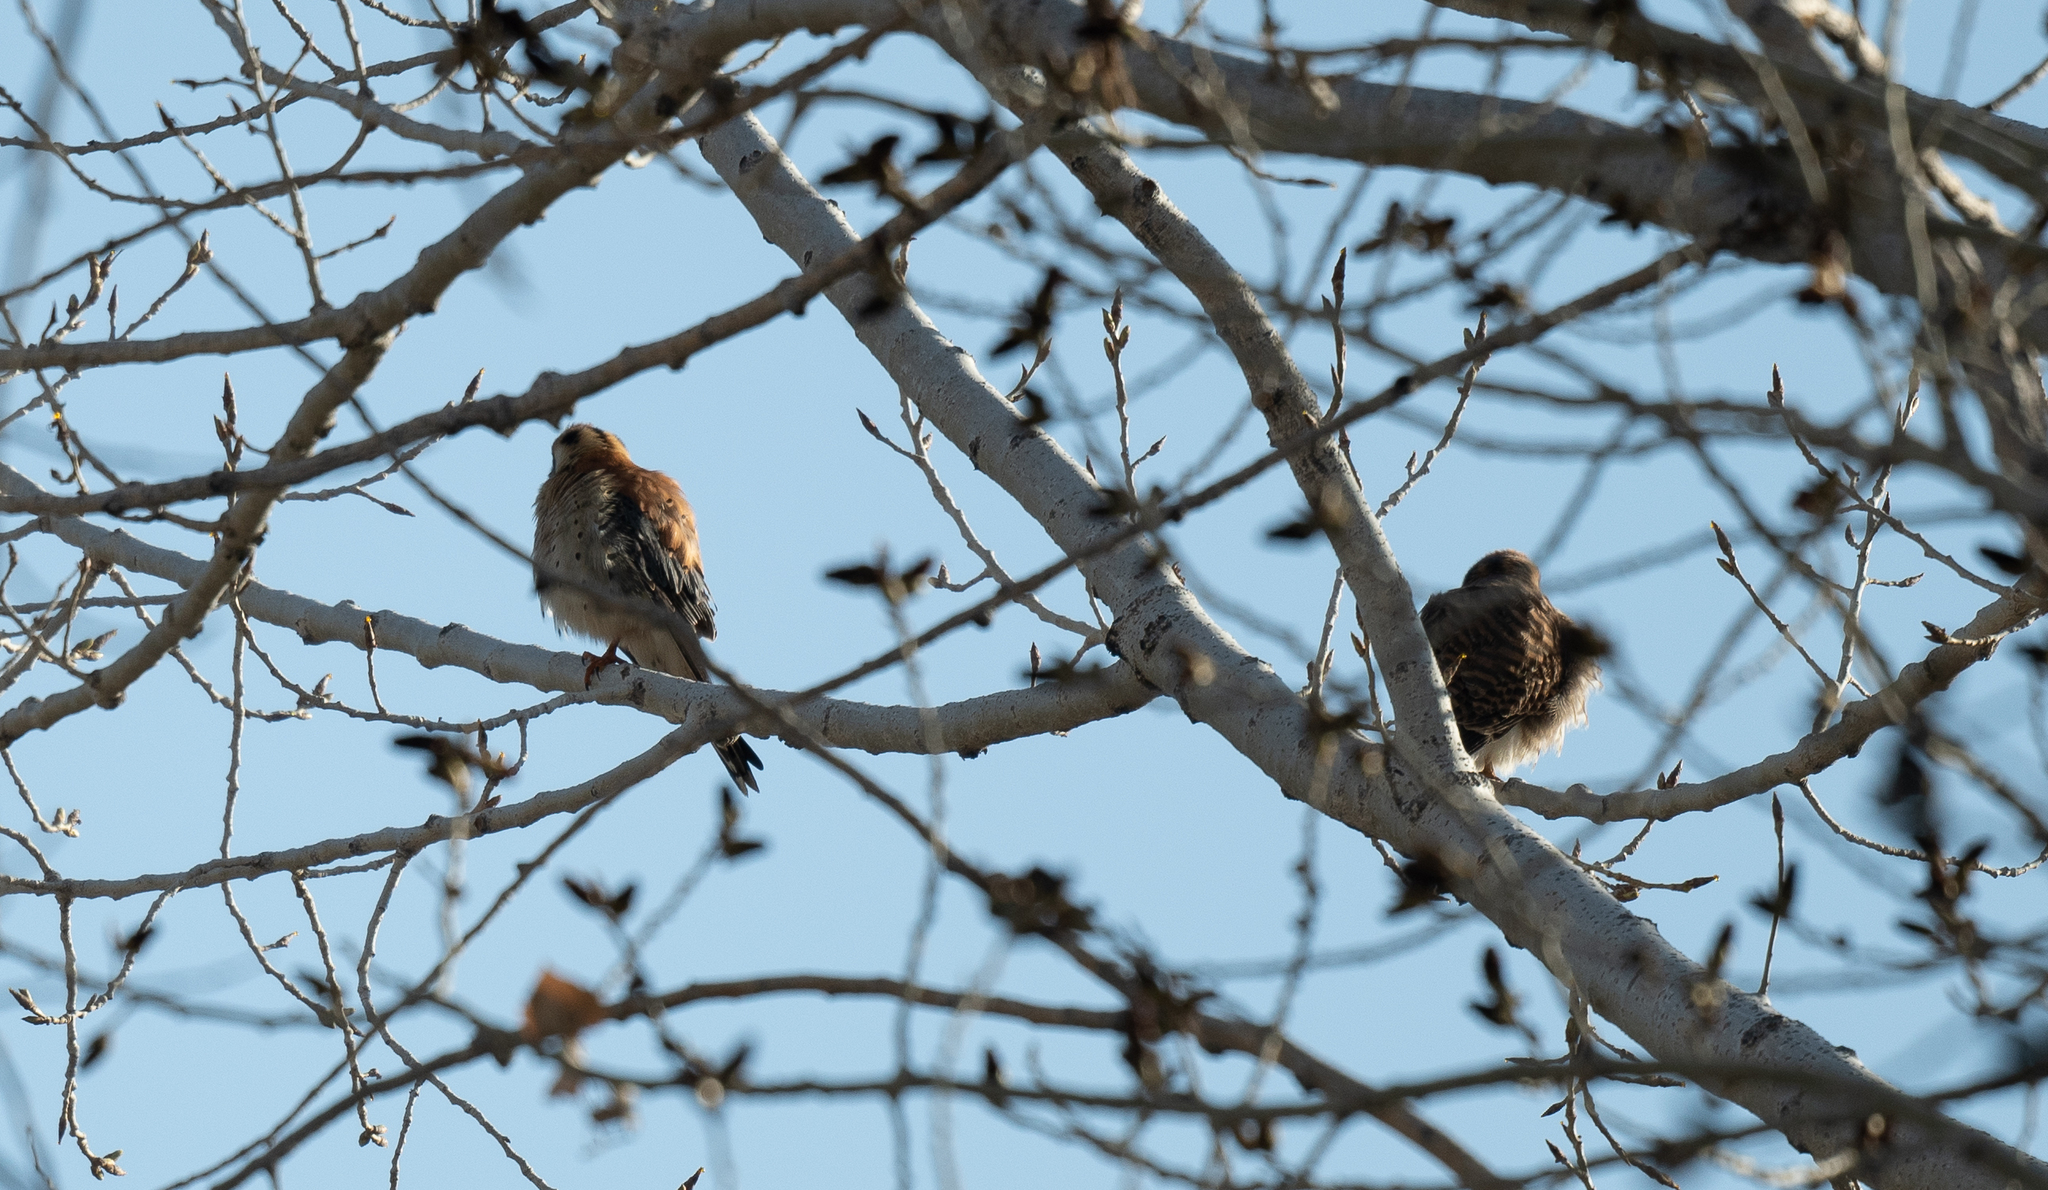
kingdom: Animalia
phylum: Chordata
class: Aves
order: Falconiformes
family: Falconidae
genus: Falco
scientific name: Falco sparverius
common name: American kestrel
